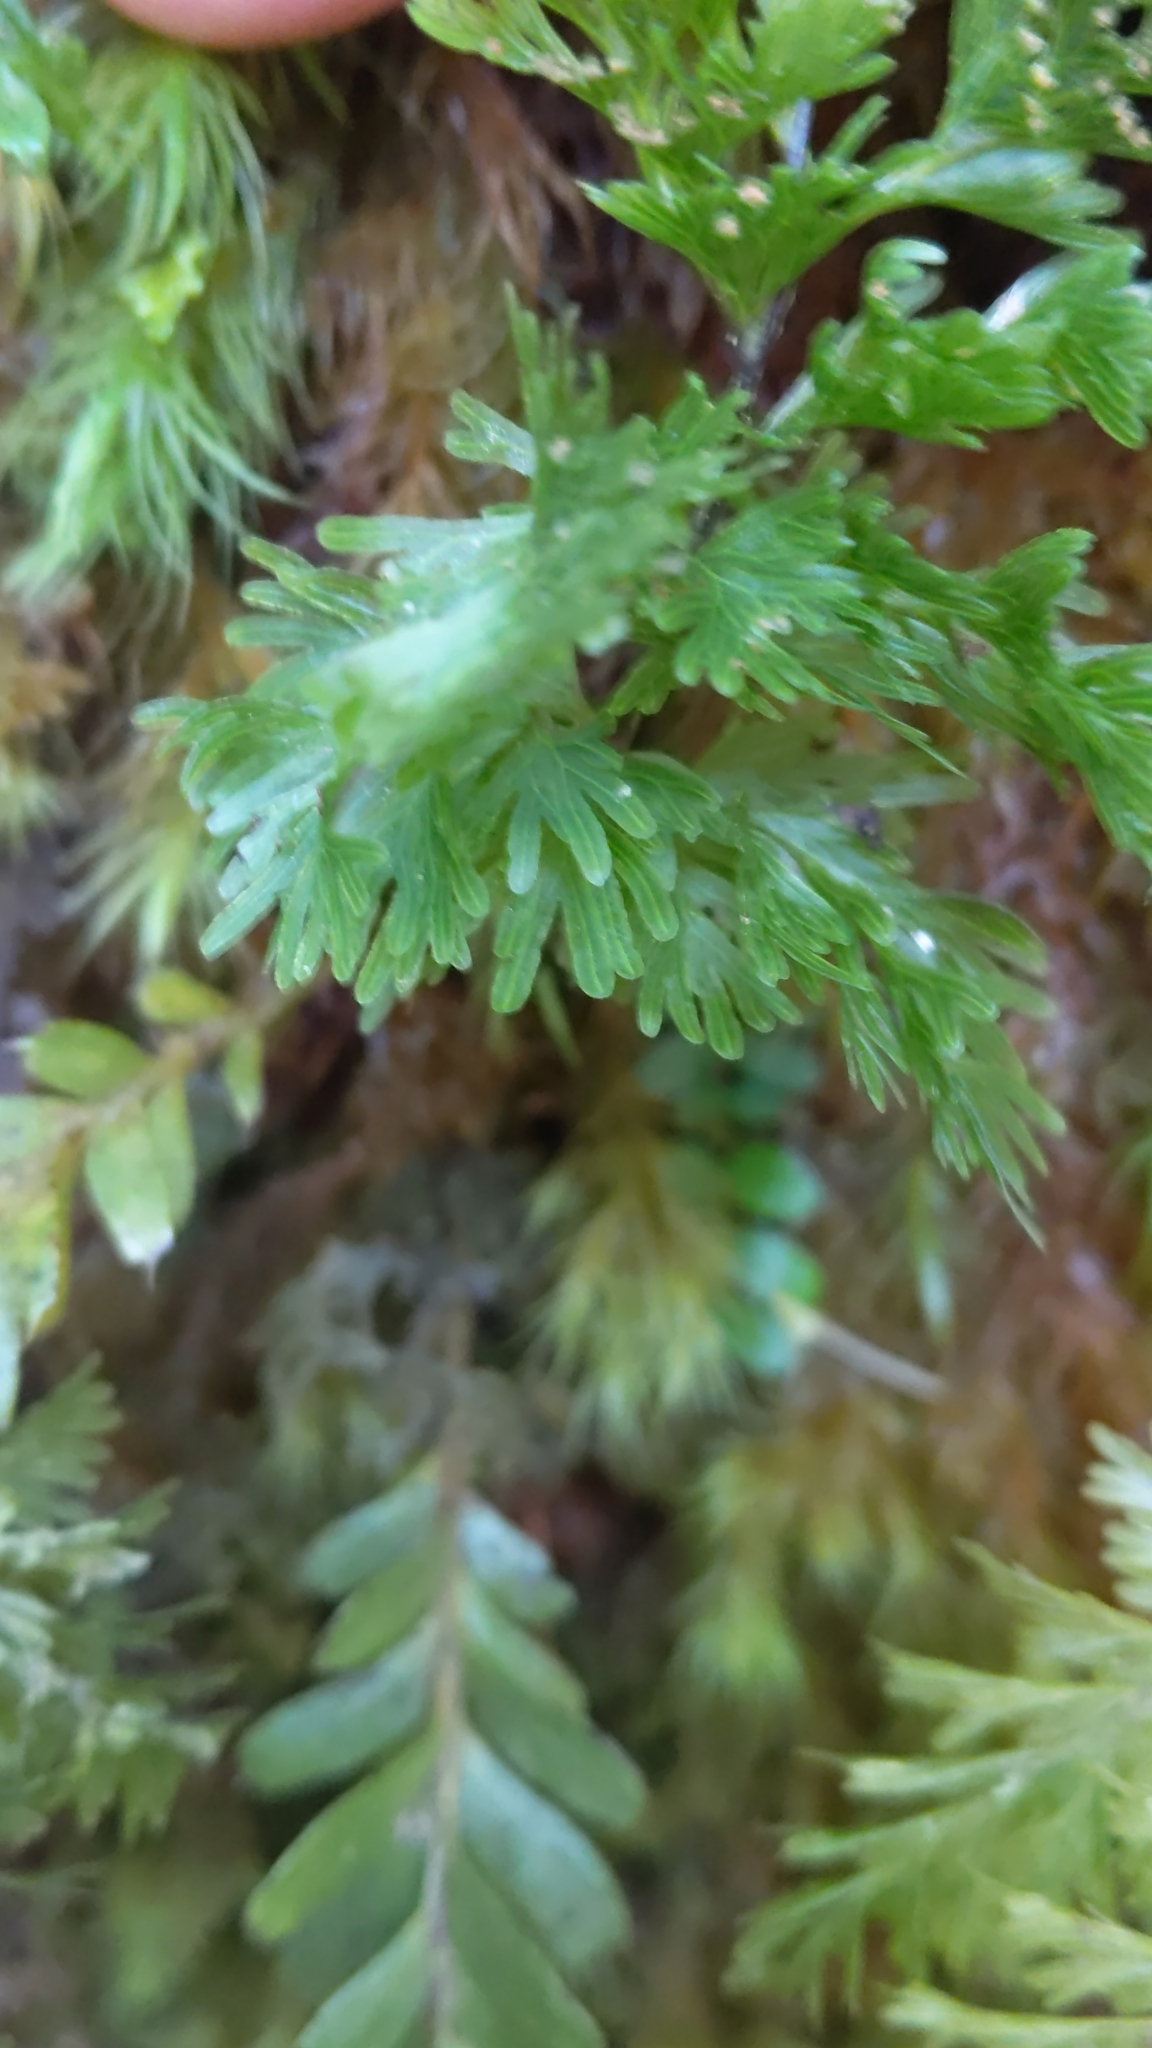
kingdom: Plantae
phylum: Tracheophyta
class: Polypodiopsida
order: Hymenophyllales
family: Hymenophyllaceae
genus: Hymenophyllum
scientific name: Hymenophyllum demissum
